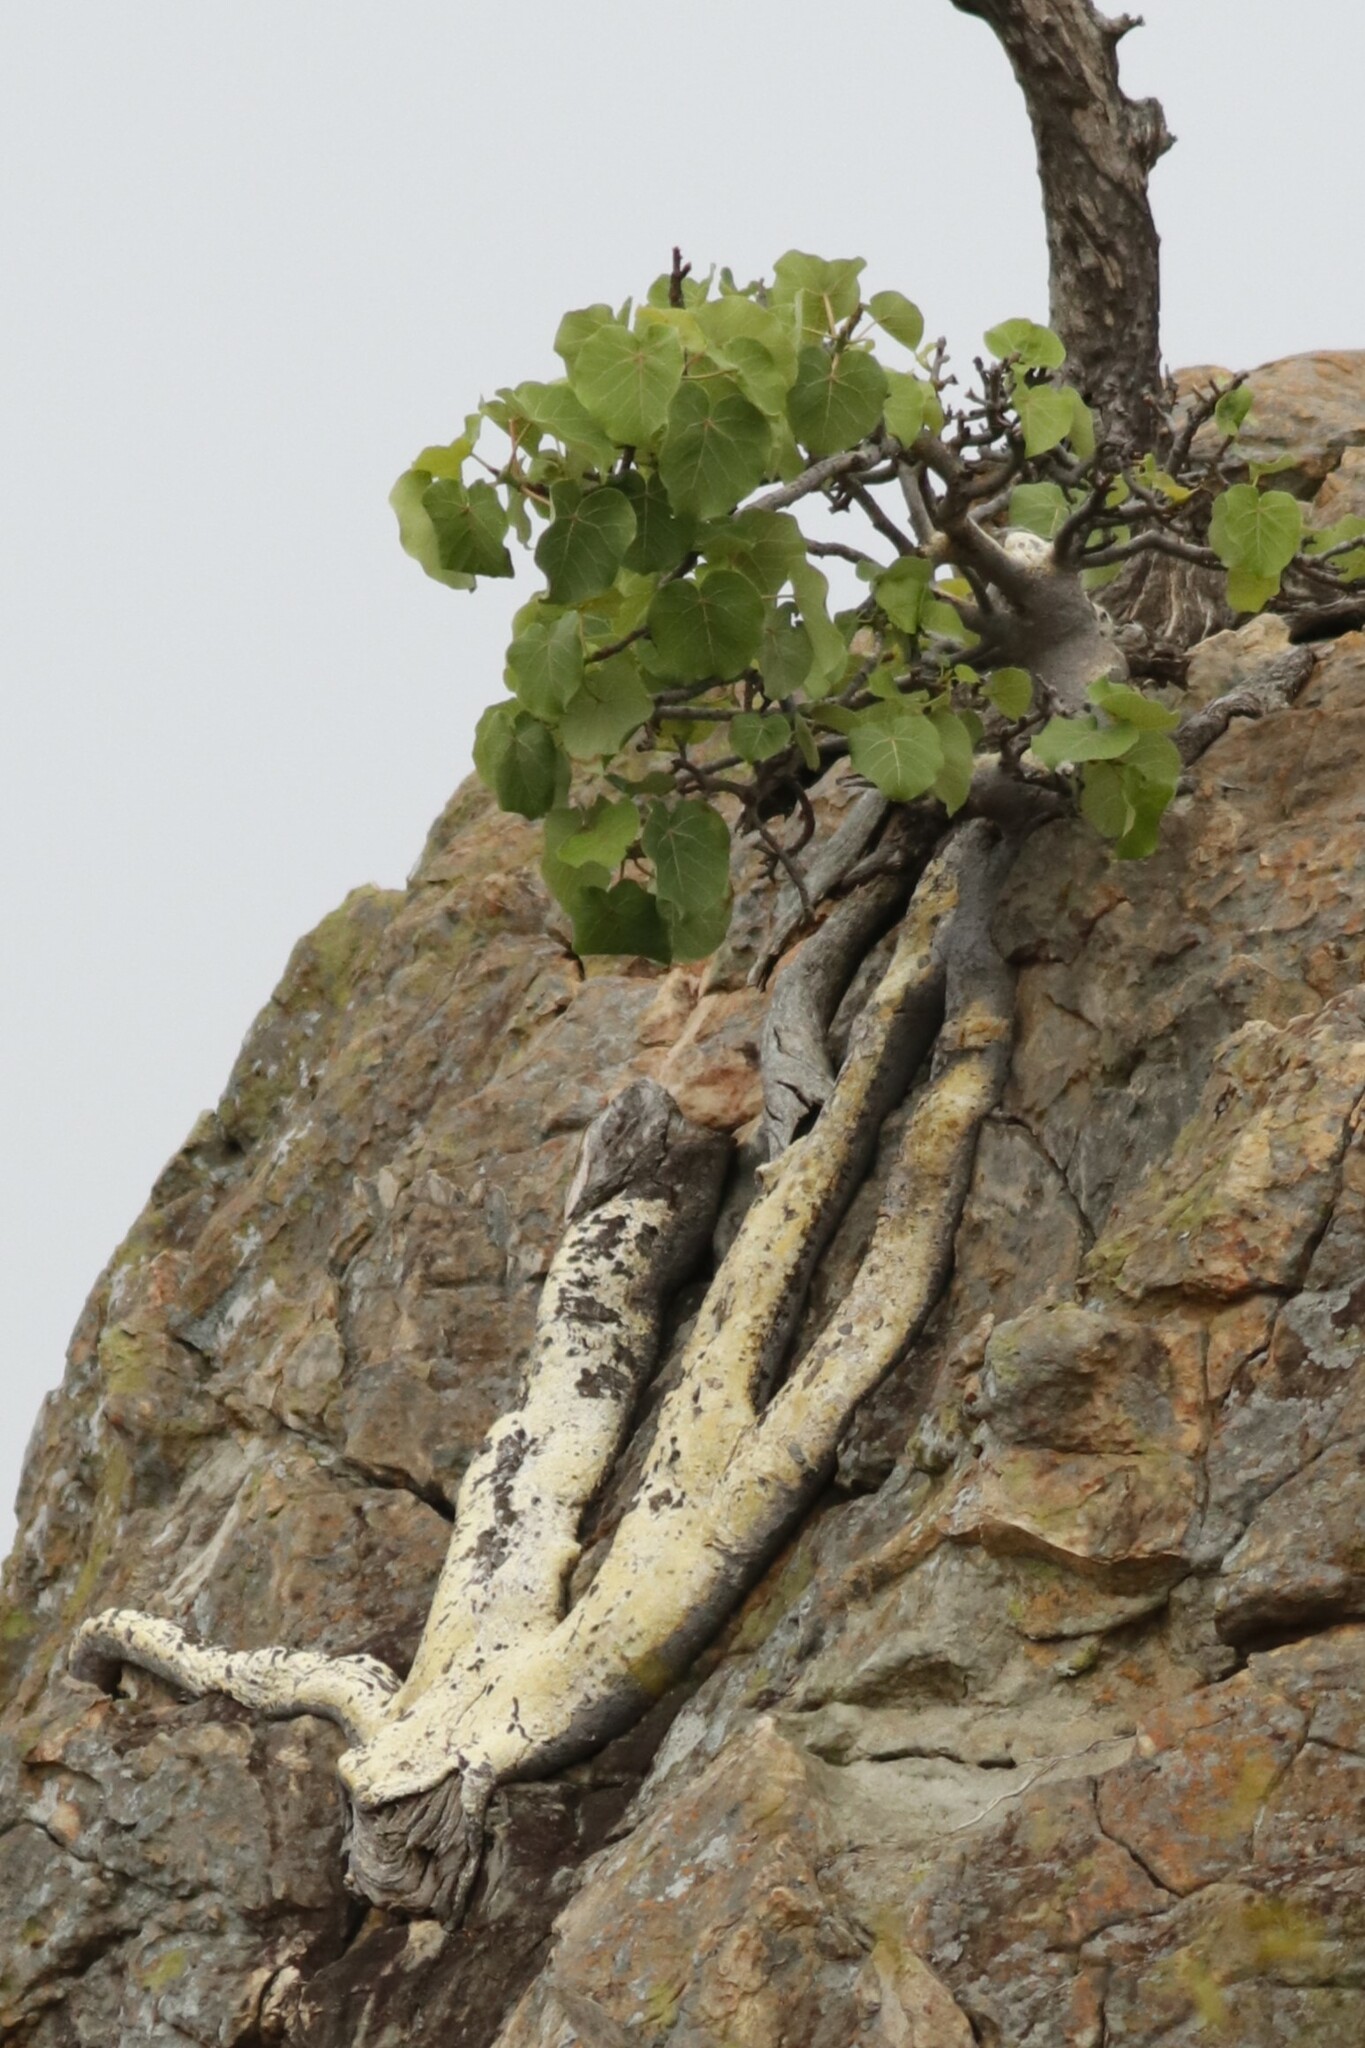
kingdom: Plantae
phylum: Tracheophyta
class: Magnoliopsida
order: Rosales
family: Moraceae
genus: Ficus
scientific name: Ficus abutilifolia
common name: Large-leaved rock fig
